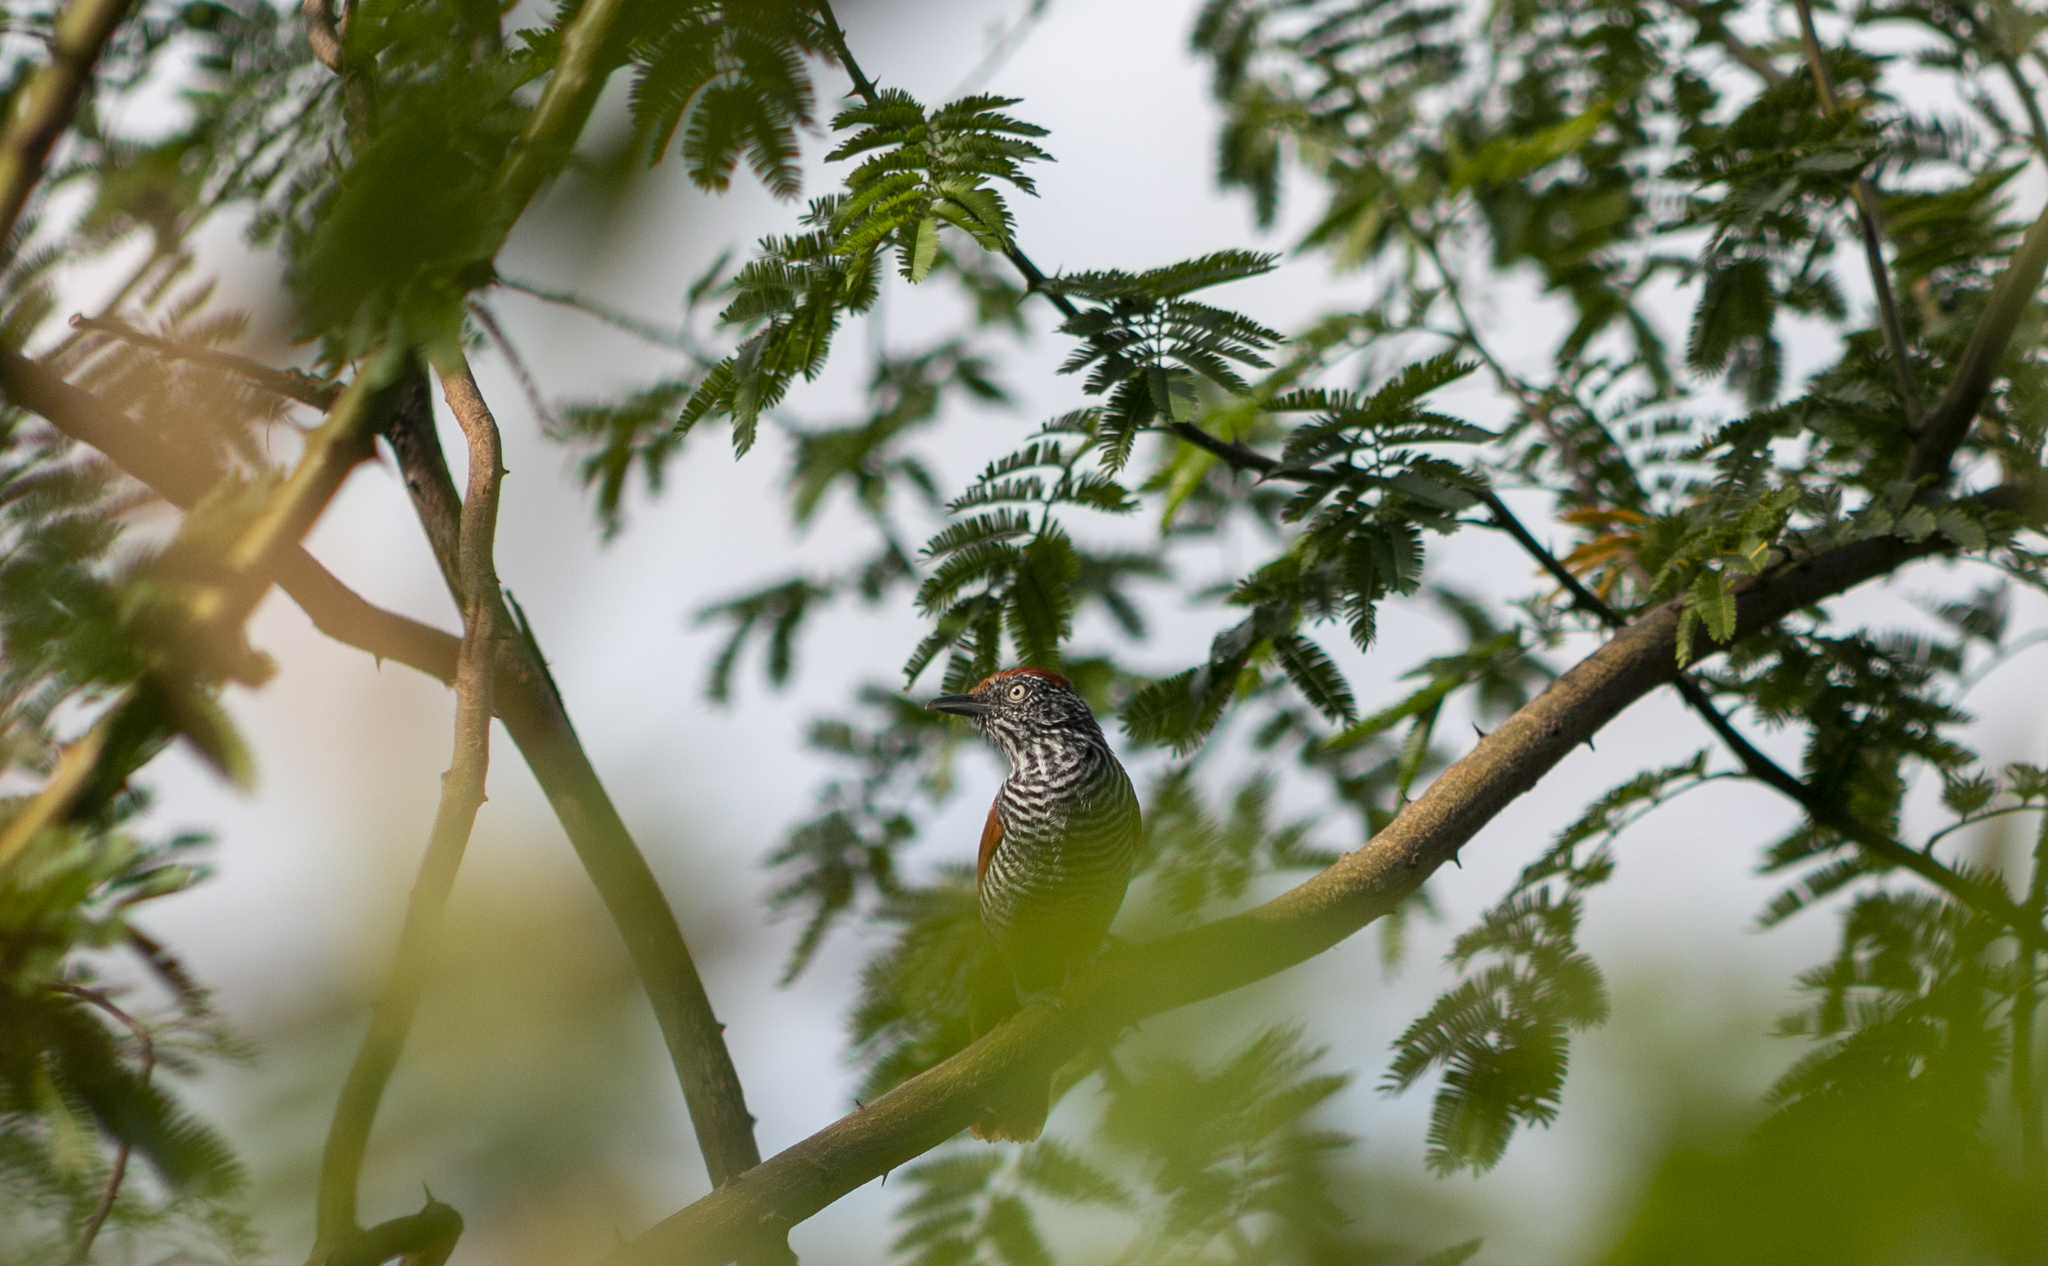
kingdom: Animalia
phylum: Chordata
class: Aves
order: Passeriformes
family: Thamnophilidae
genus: Thamnophilus
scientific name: Thamnophilus palliatus
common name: Chestnut-backed antshrike
